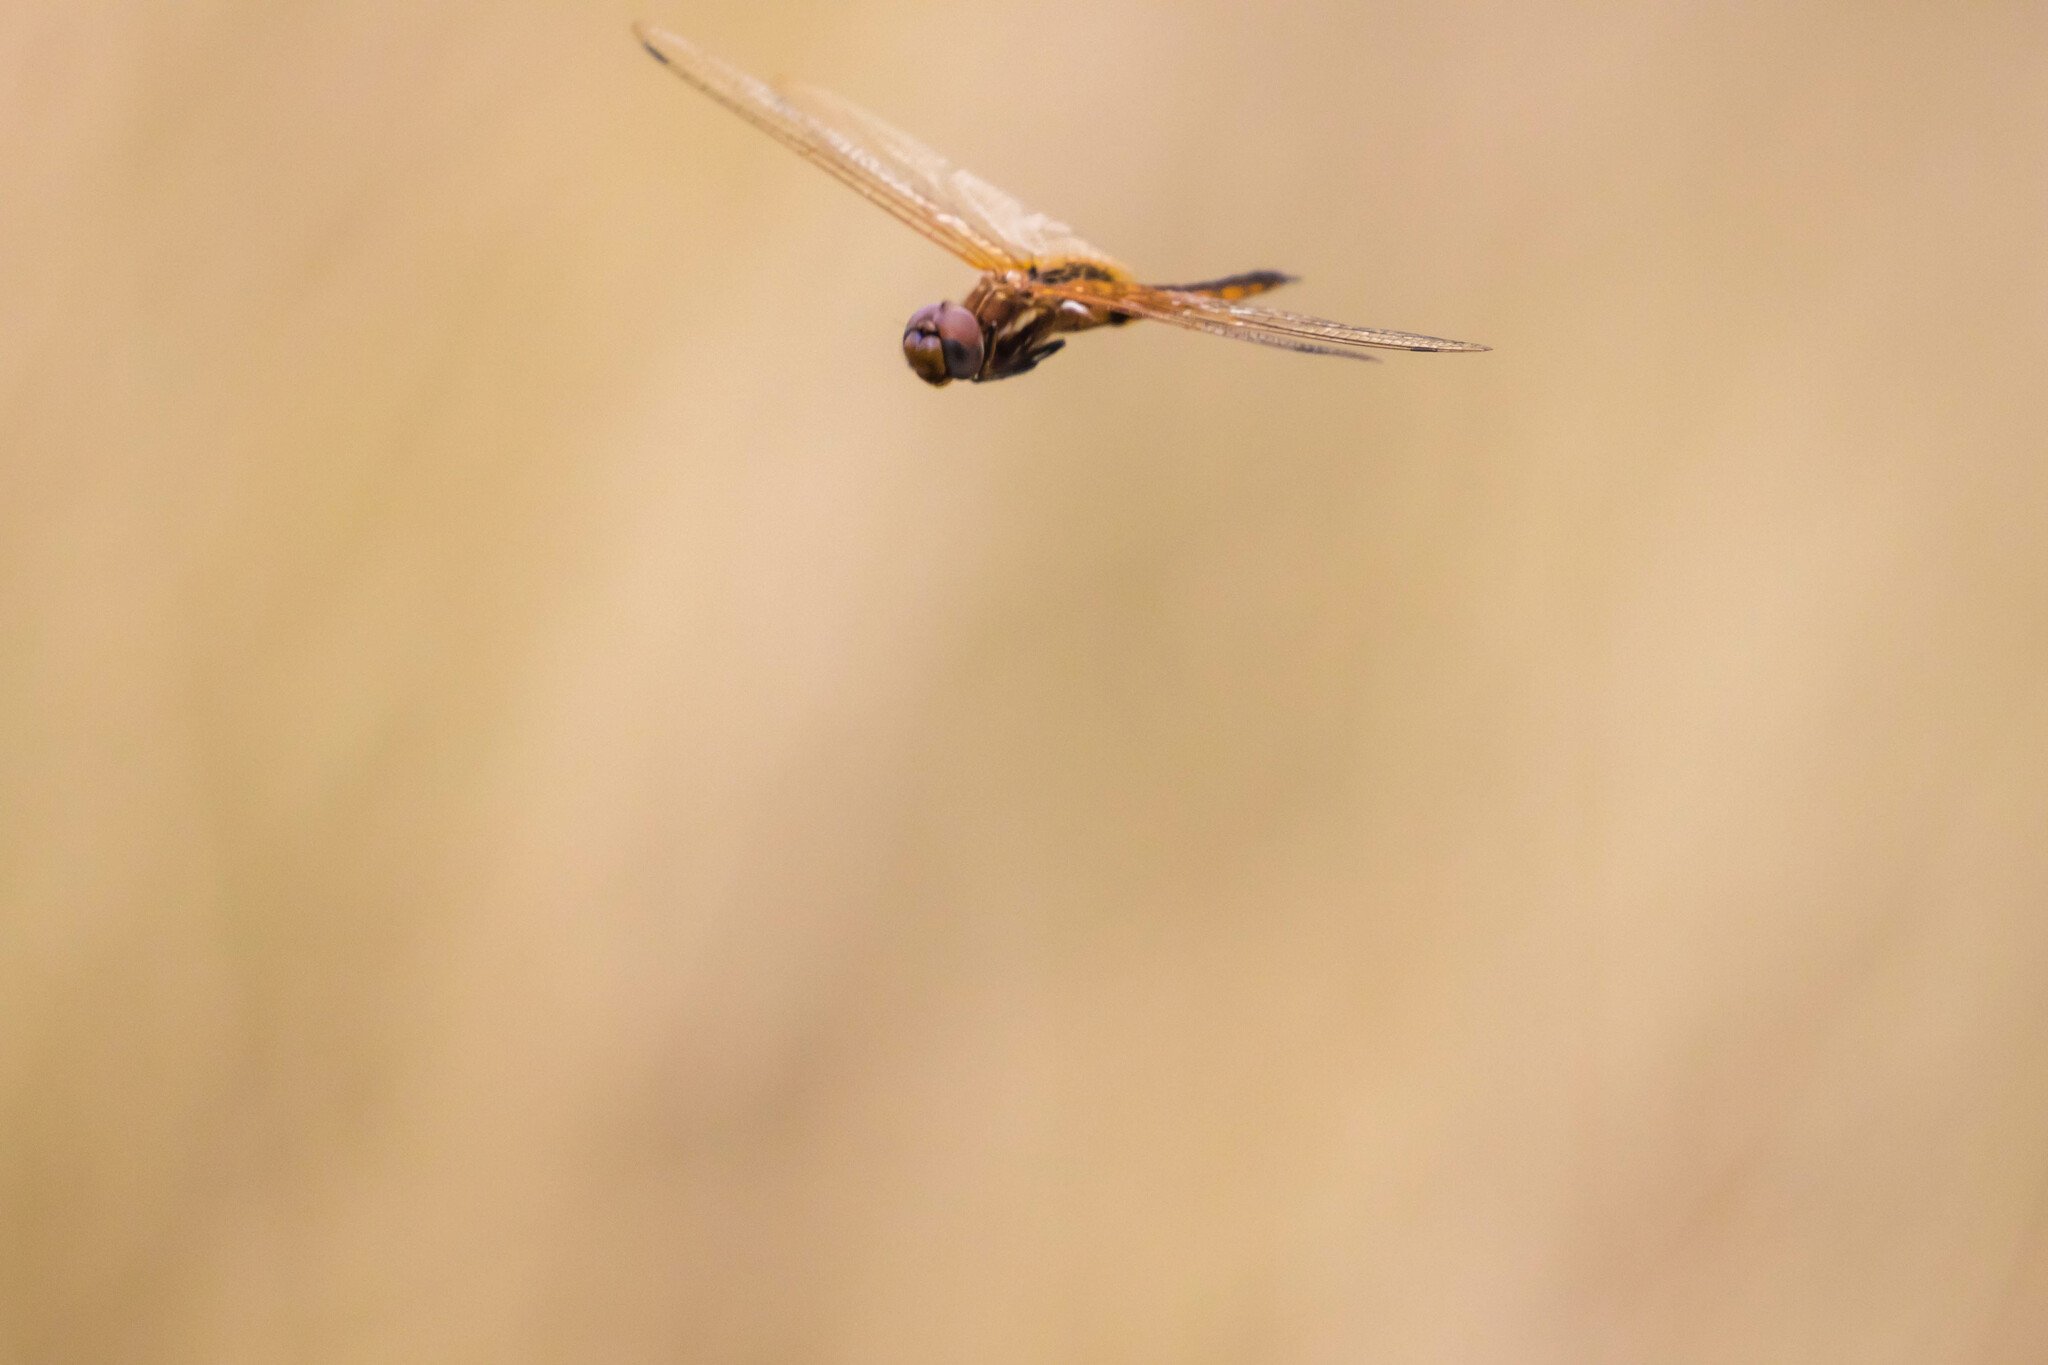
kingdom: Animalia
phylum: Arthropoda
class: Insecta
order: Odonata
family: Libellulidae
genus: Miathyria
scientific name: Miathyria marcella
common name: Hyacinth glider
